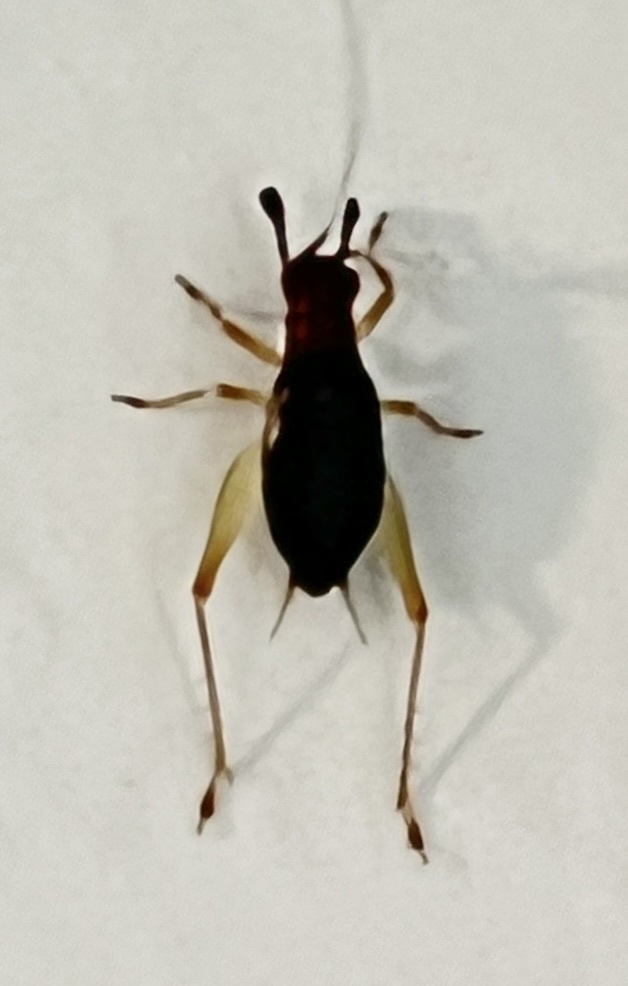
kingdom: Animalia
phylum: Arthropoda
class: Insecta
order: Orthoptera
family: Trigonidiidae
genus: Phyllopalpus
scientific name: Phyllopalpus pulchellus
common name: Handsome trig
